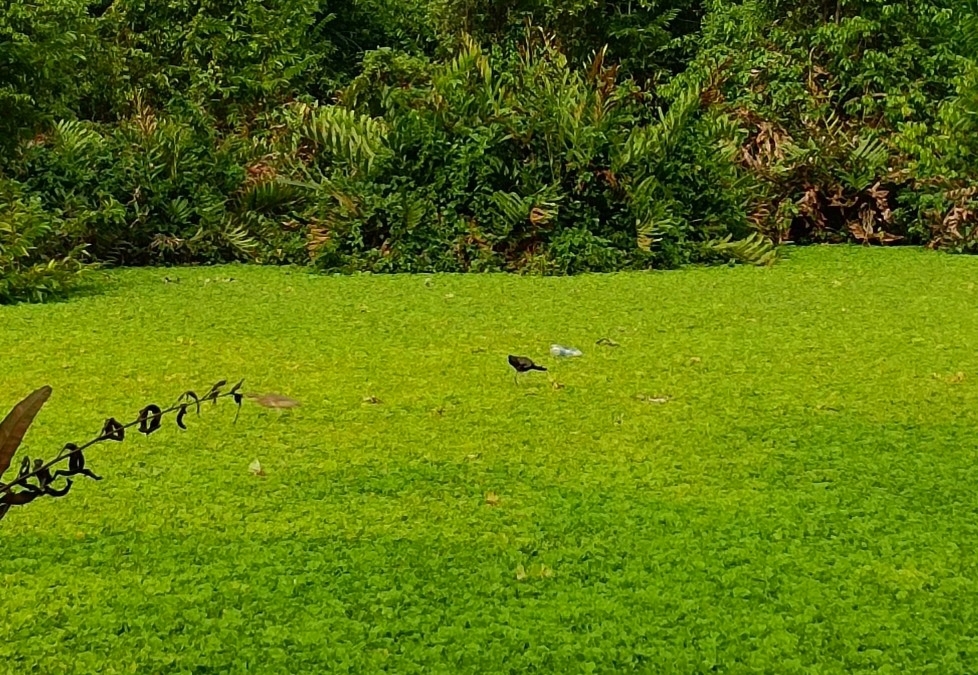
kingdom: Animalia
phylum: Chordata
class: Aves
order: Charadriiformes
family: Jacanidae
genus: Metopidius
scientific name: Metopidius indicus
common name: Bronze-winged jacana
